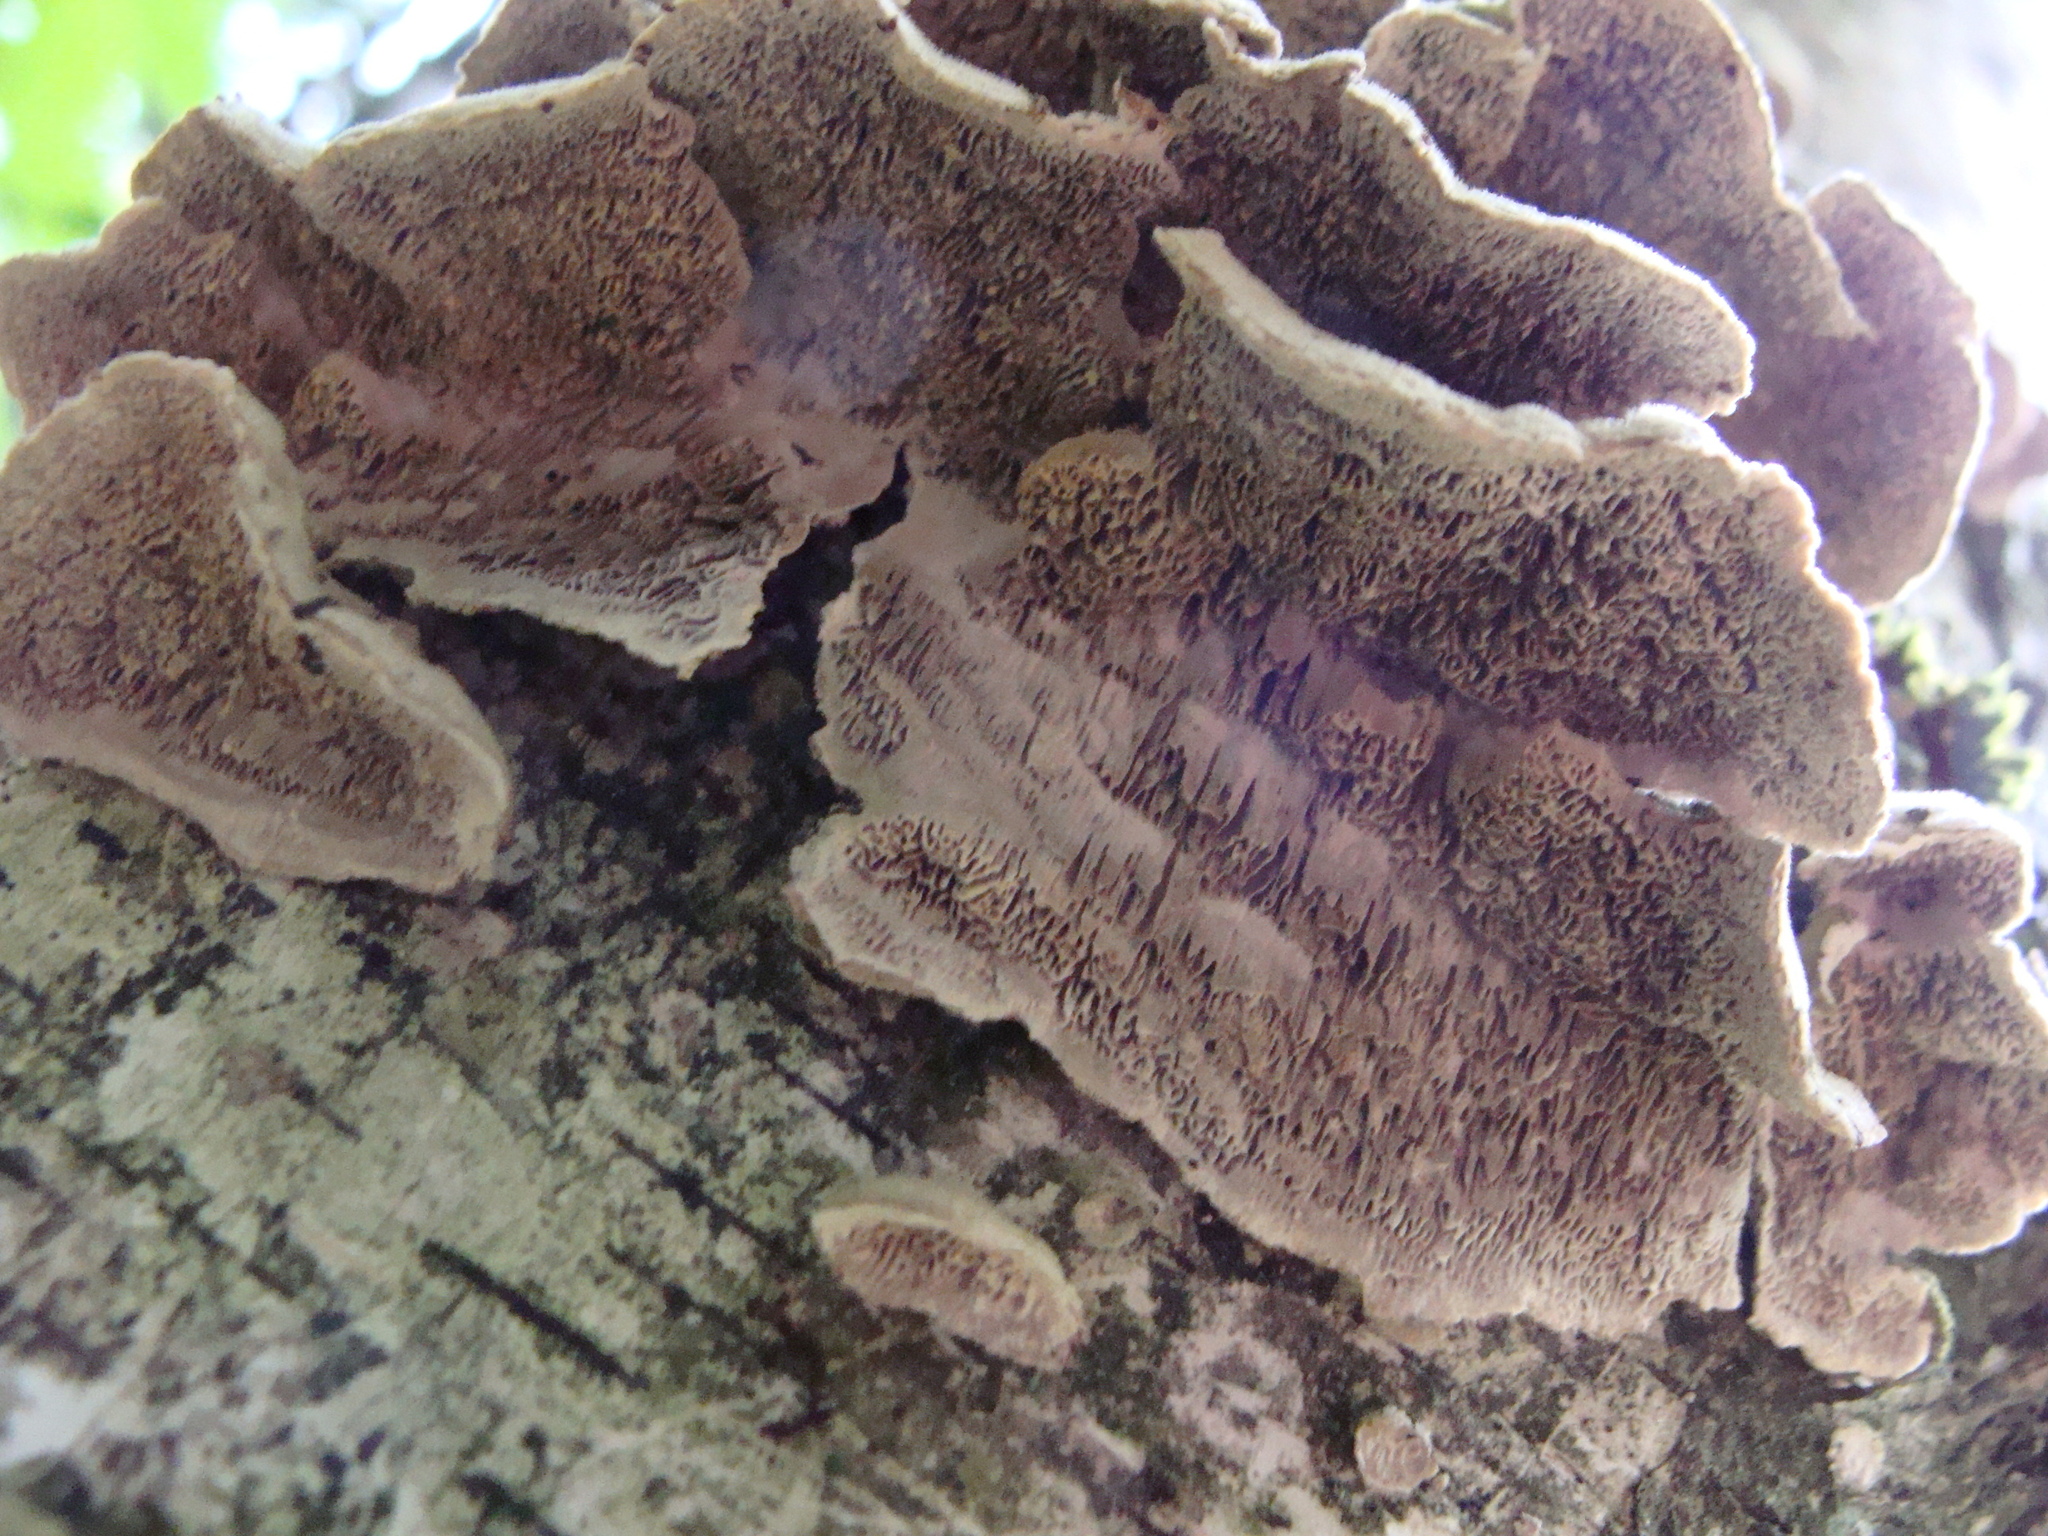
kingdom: Fungi
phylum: Basidiomycota
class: Agaricomycetes
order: Hymenochaetales
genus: Trichaptum
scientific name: Trichaptum biforme
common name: Violet-toothed polypore
